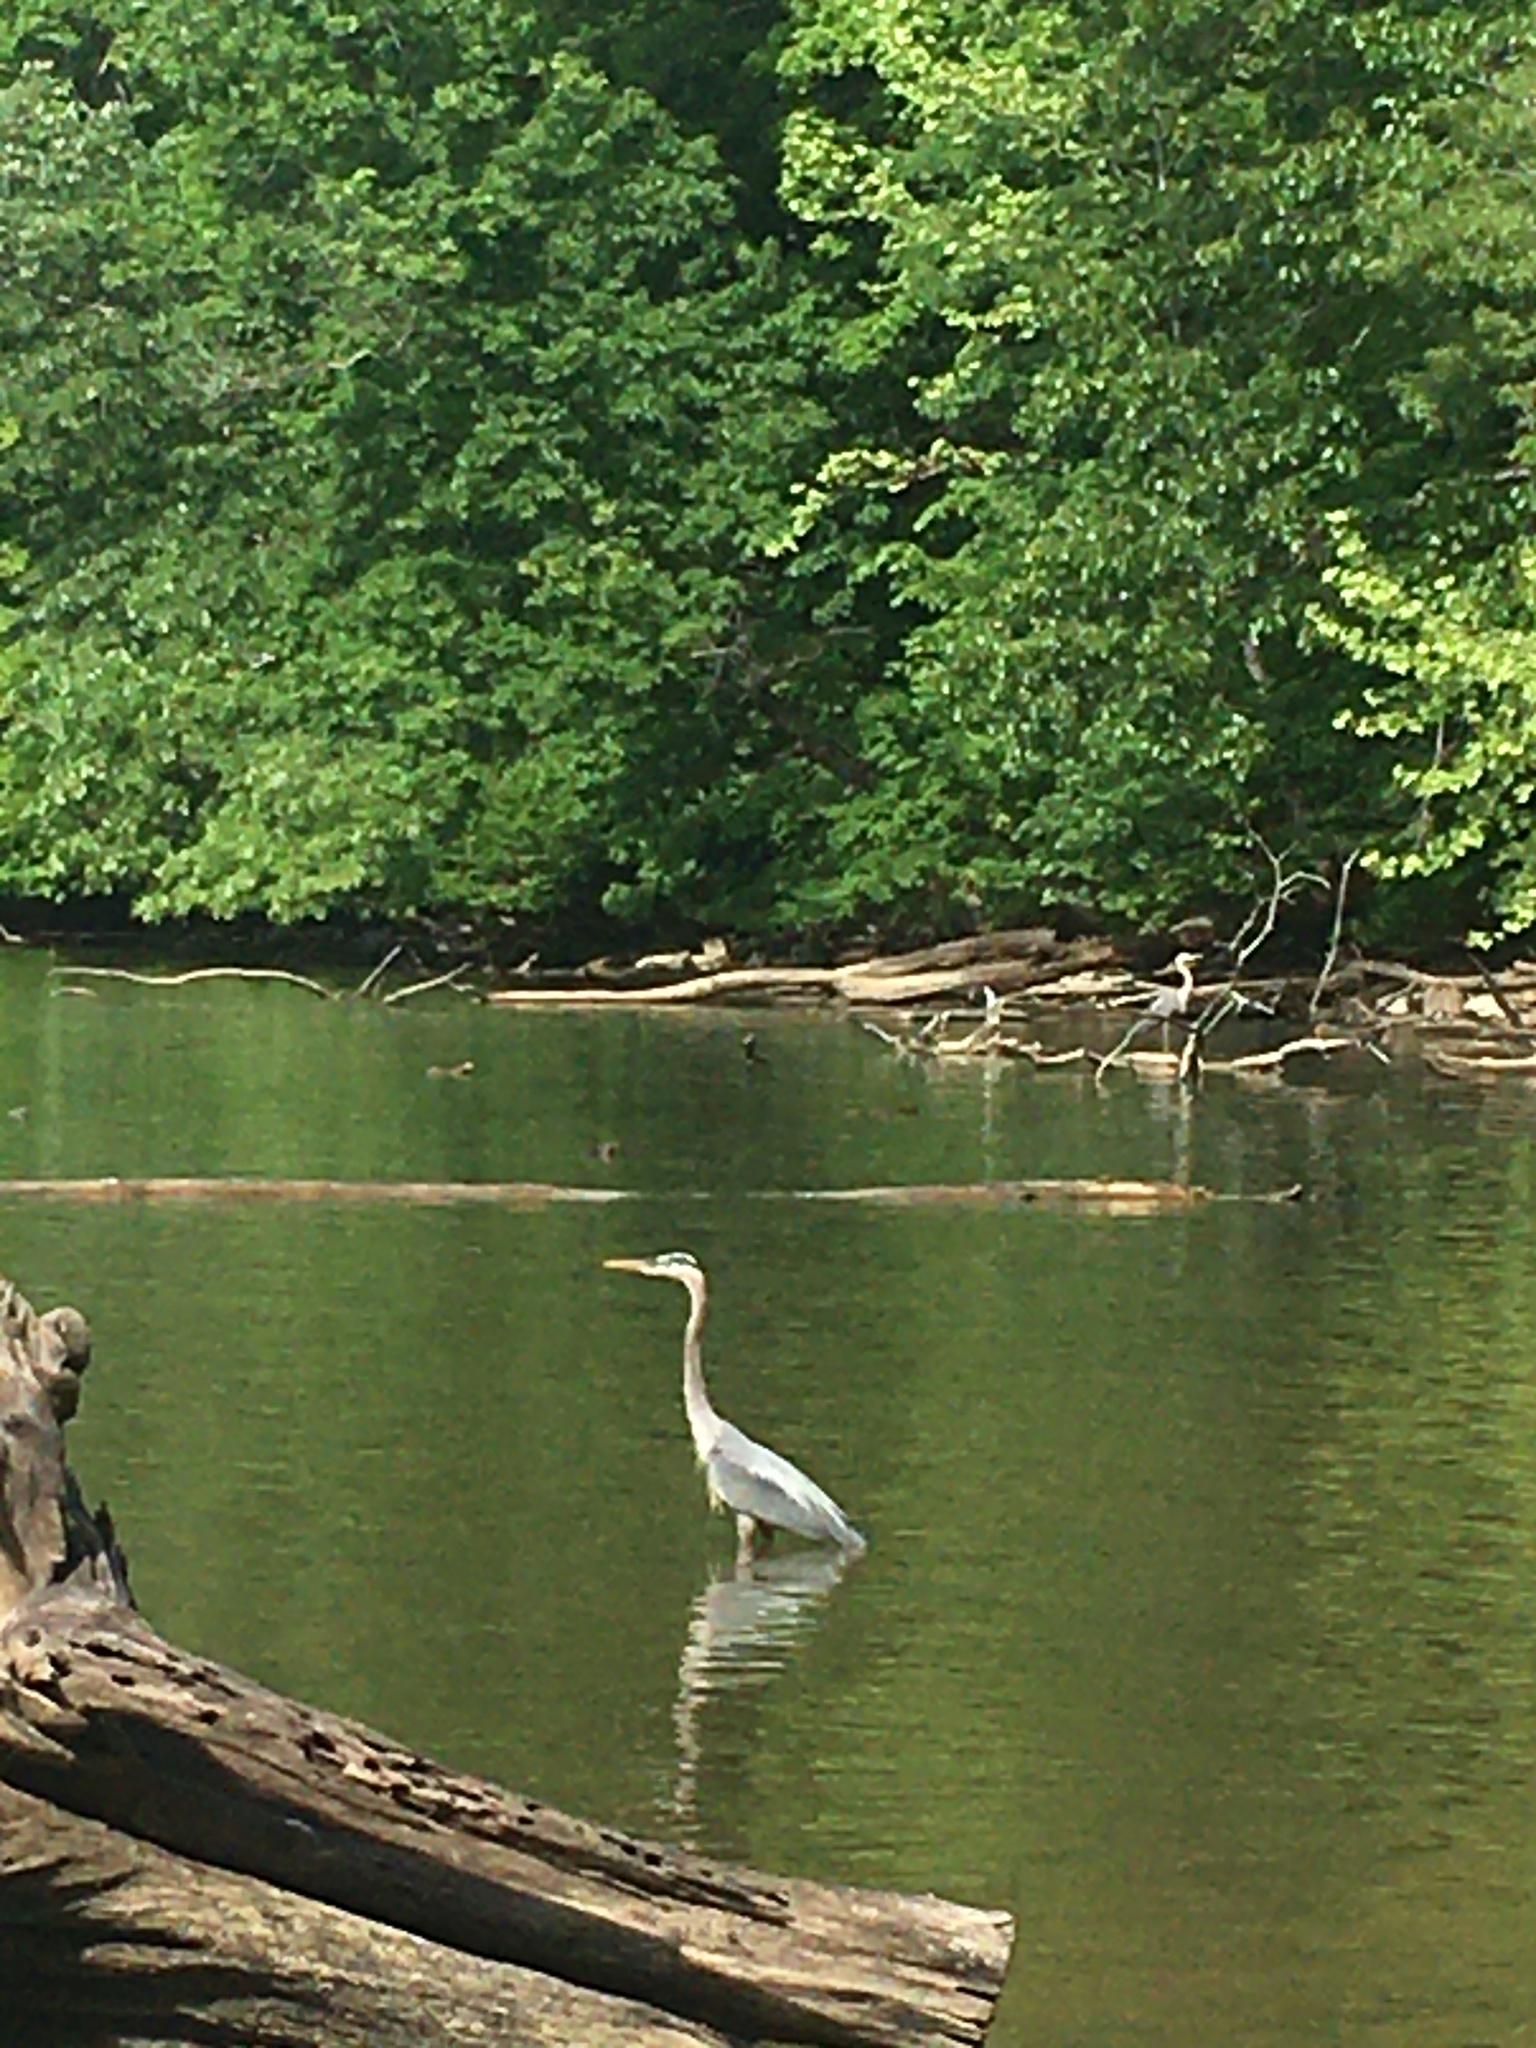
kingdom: Animalia
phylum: Chordata
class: Aves
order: Pelecaniformes
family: Ardeidae
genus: Ardea
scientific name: Ardea herodias
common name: Great blue heron
